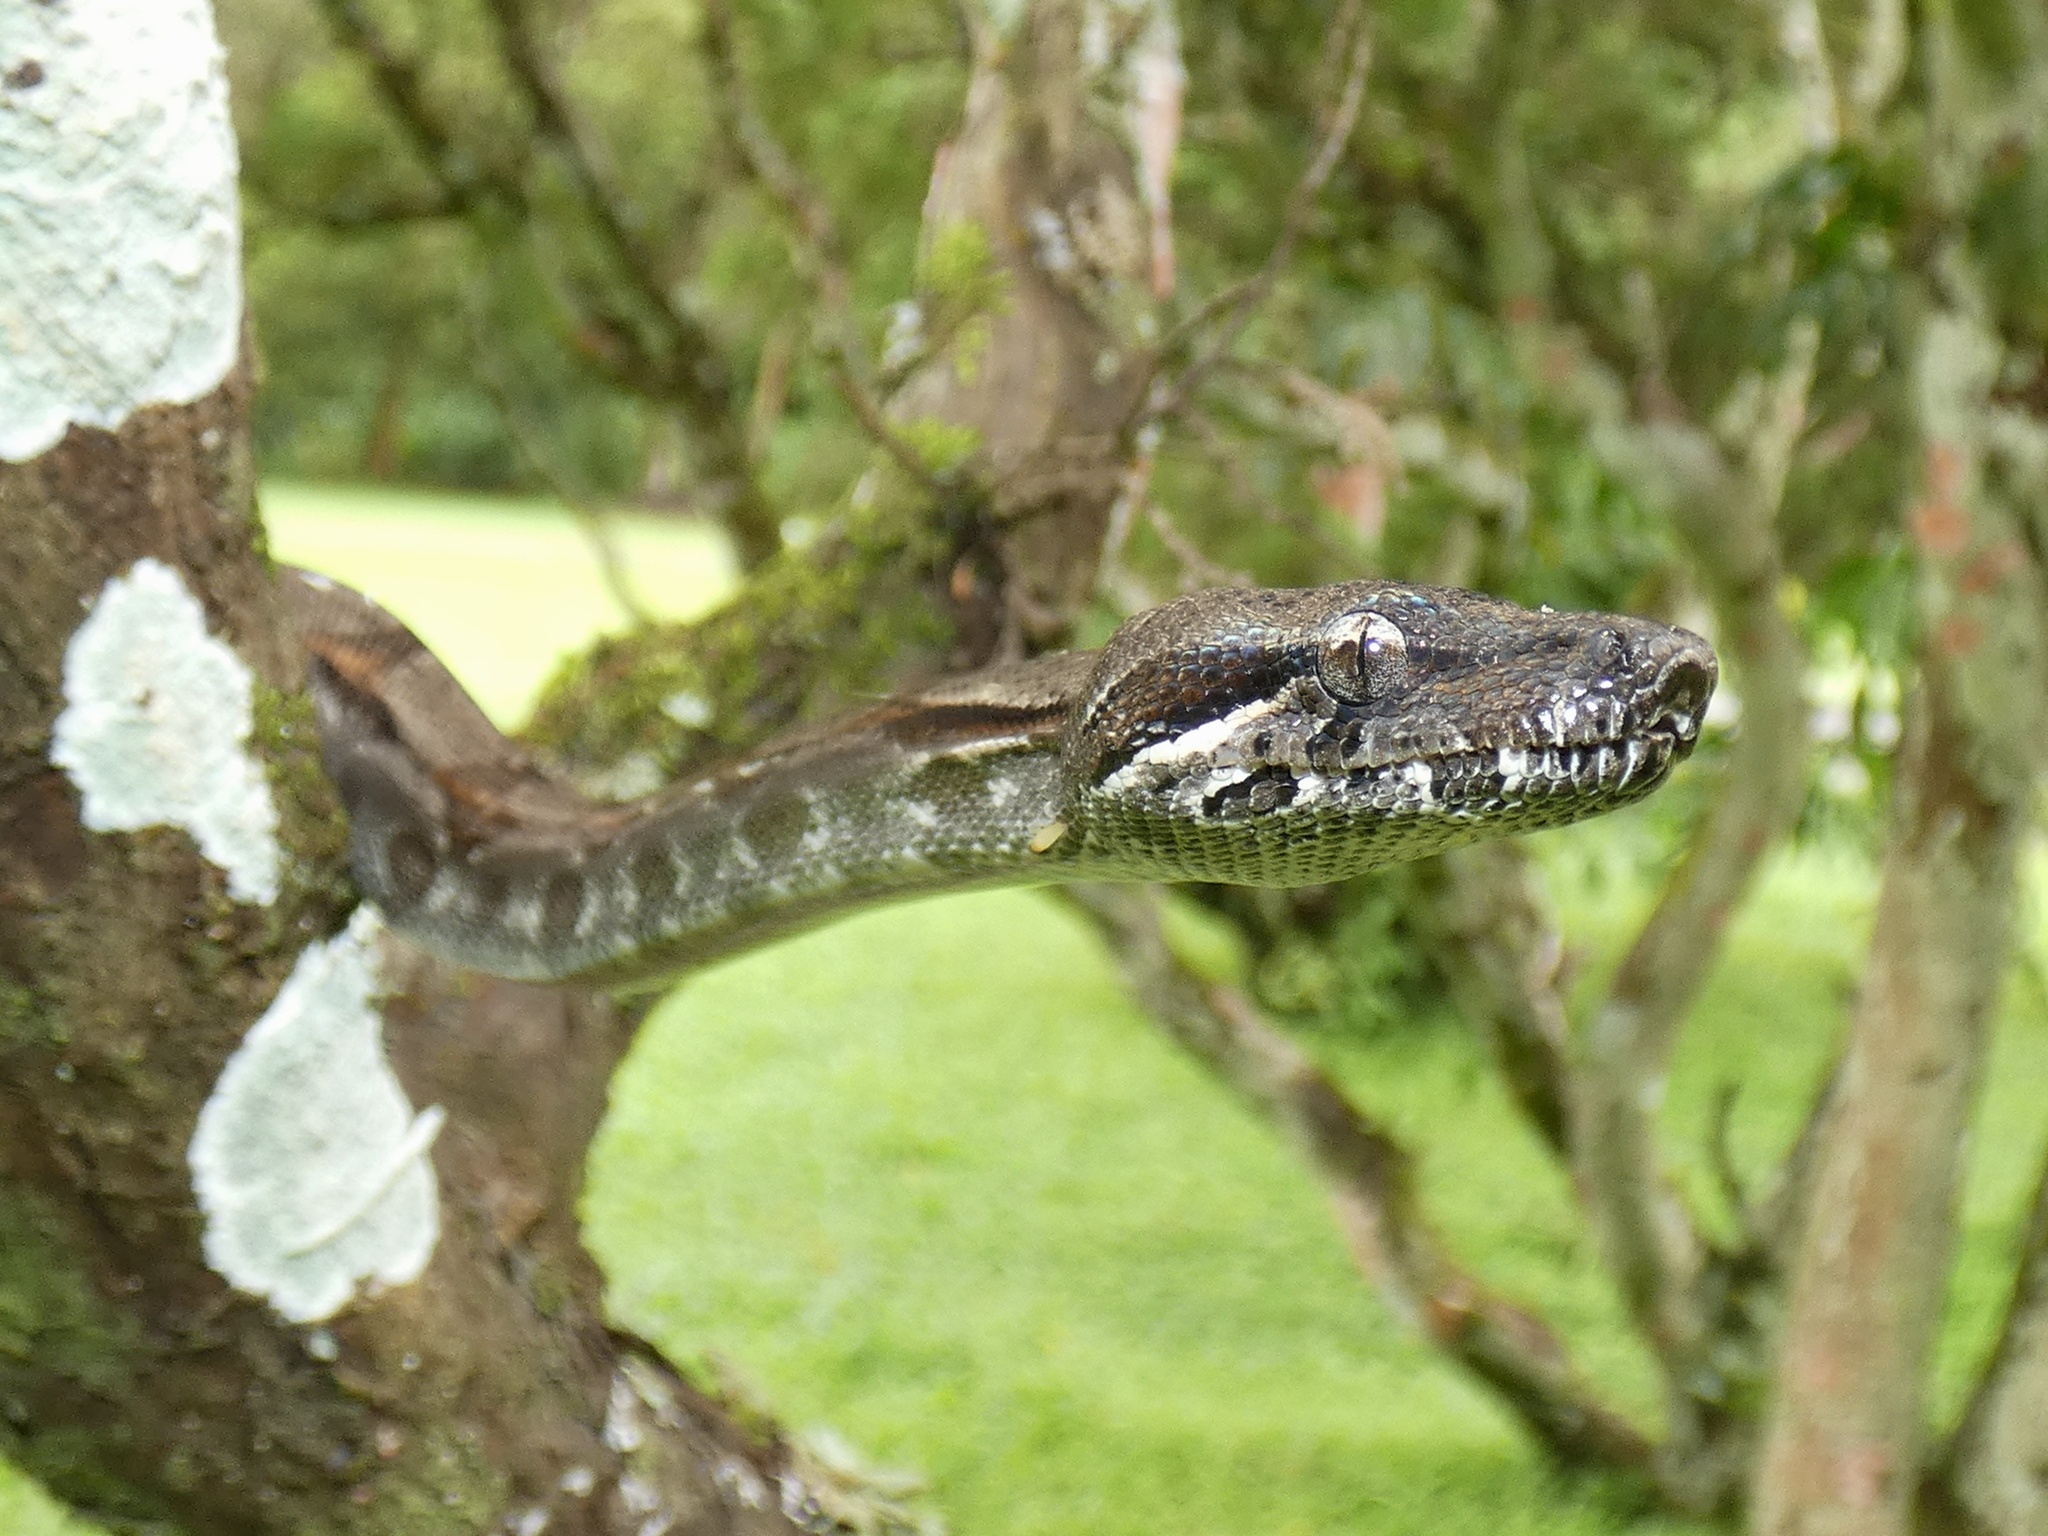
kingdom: Animalia
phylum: Chordata
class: Squamata
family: Boidae
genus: Boa
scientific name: Boa imperator
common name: Central american boa
